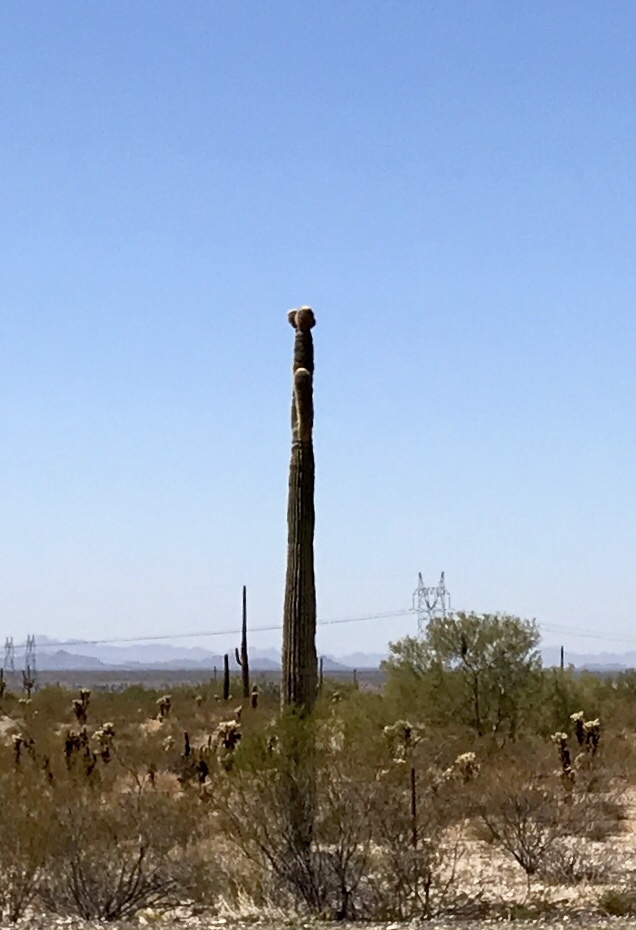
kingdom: Plantae
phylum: Tracheophyta
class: Magnoliopsida
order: Caryophyllales
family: Cactaceae
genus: Carnegiea
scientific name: Carnegiea gigantea
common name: Saguaro
